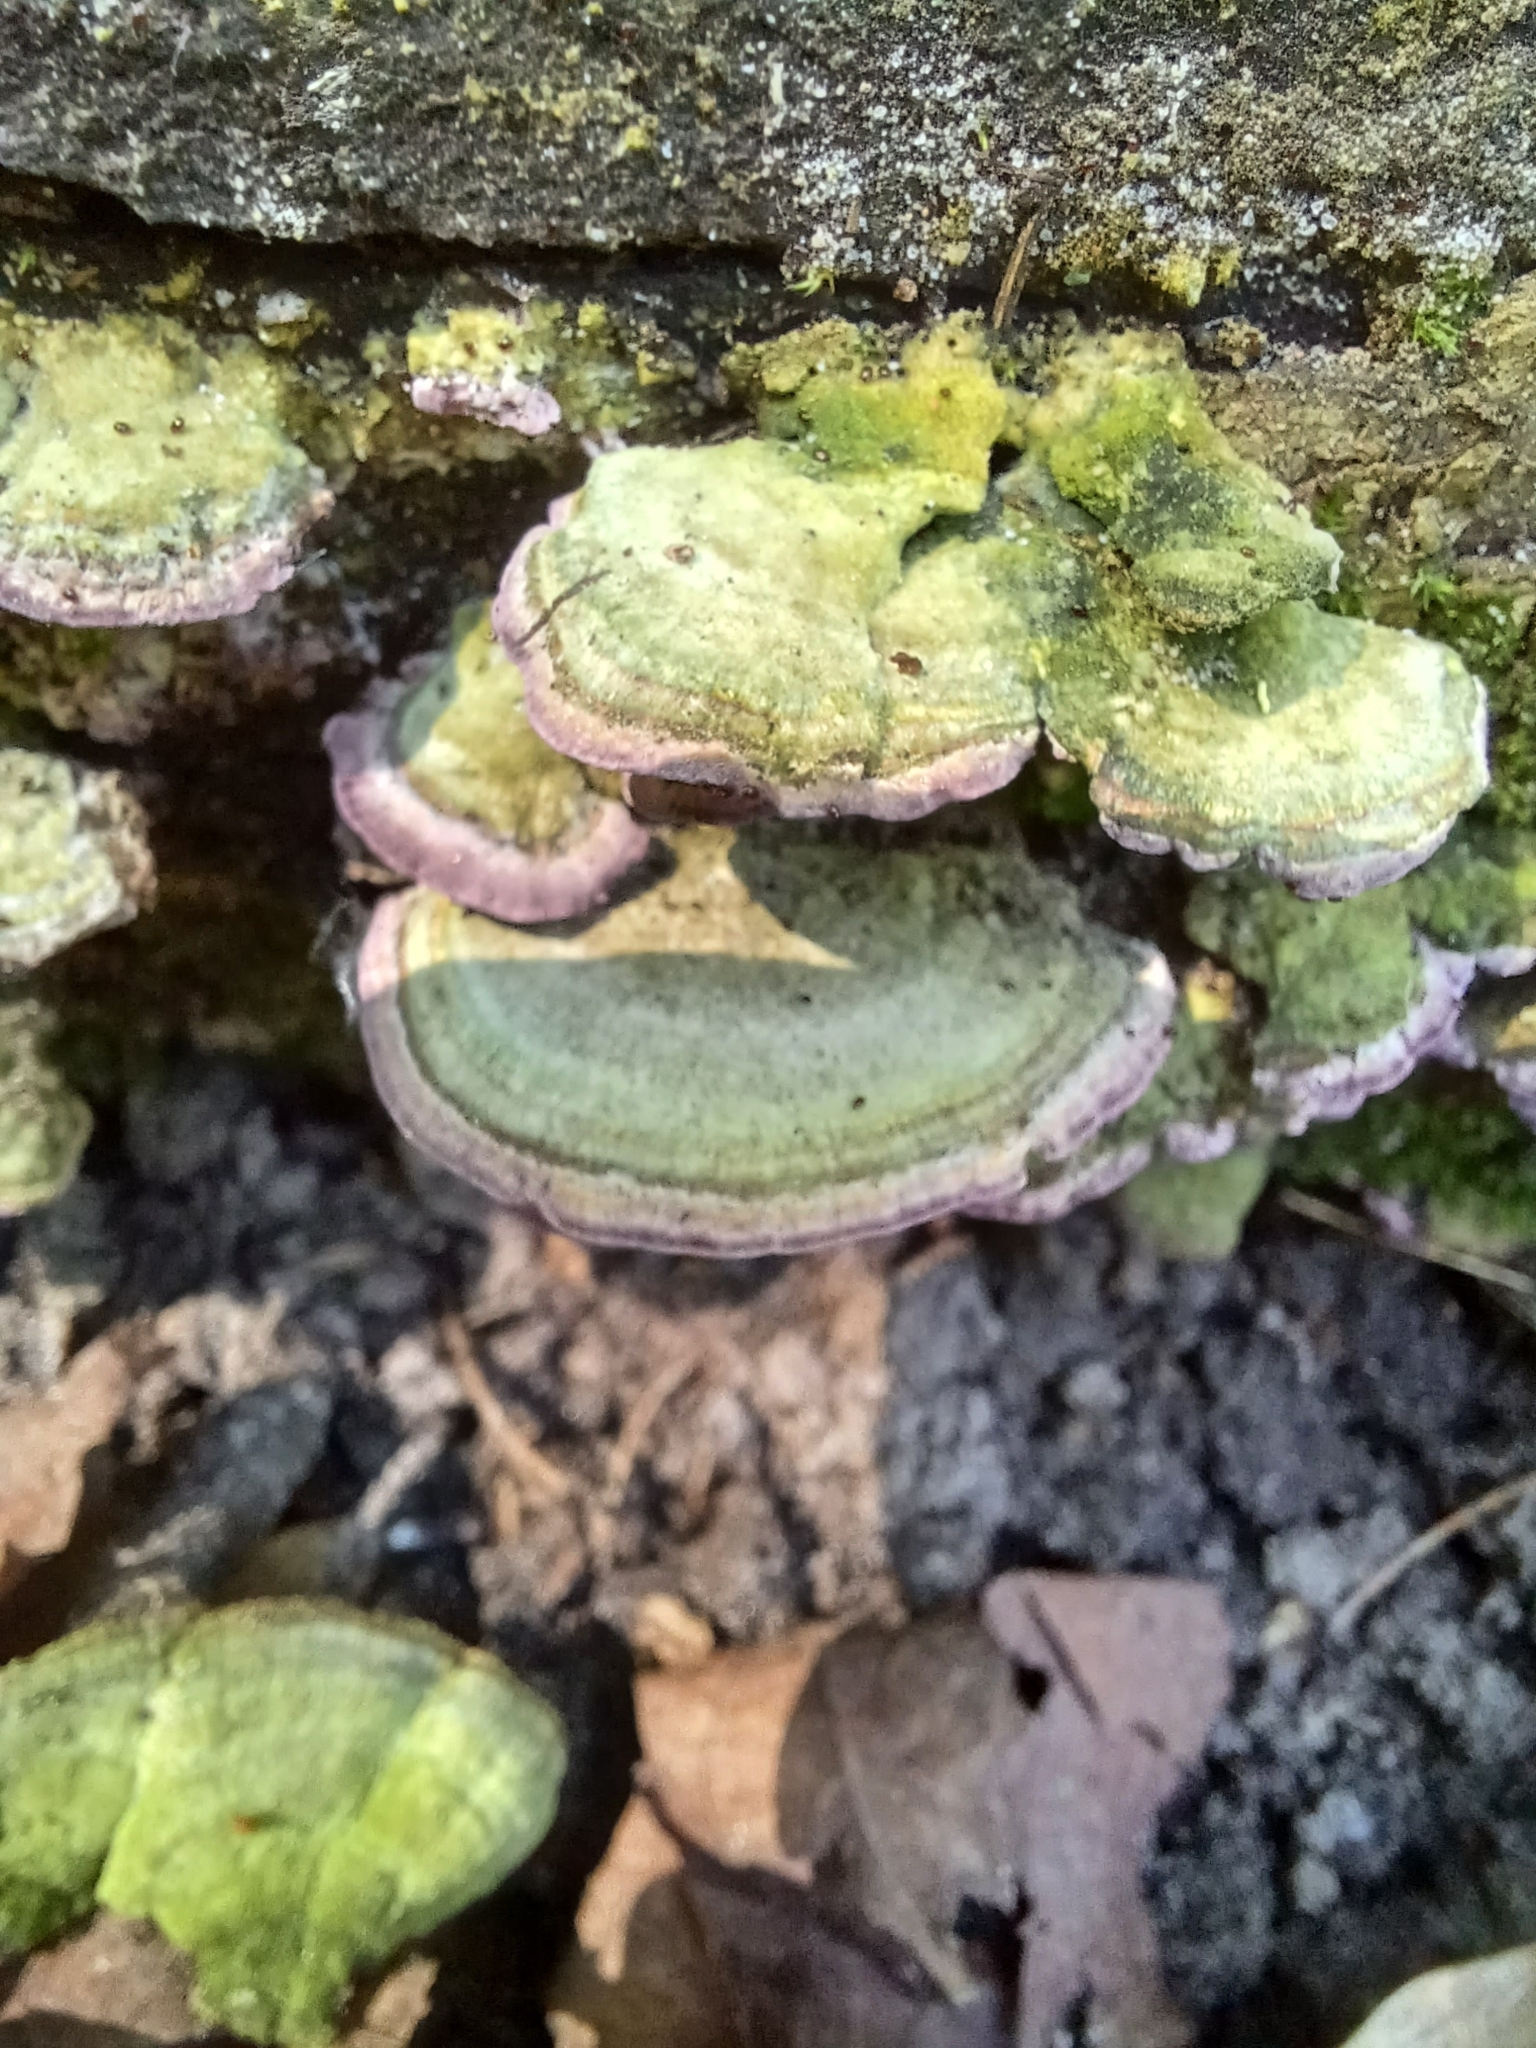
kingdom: Fungi
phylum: Basidiomycota
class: Agaricomycetes
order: Hymenochaetales
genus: Trichaptum
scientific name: Trichaptum biforme
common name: Violet-toothed polypore
